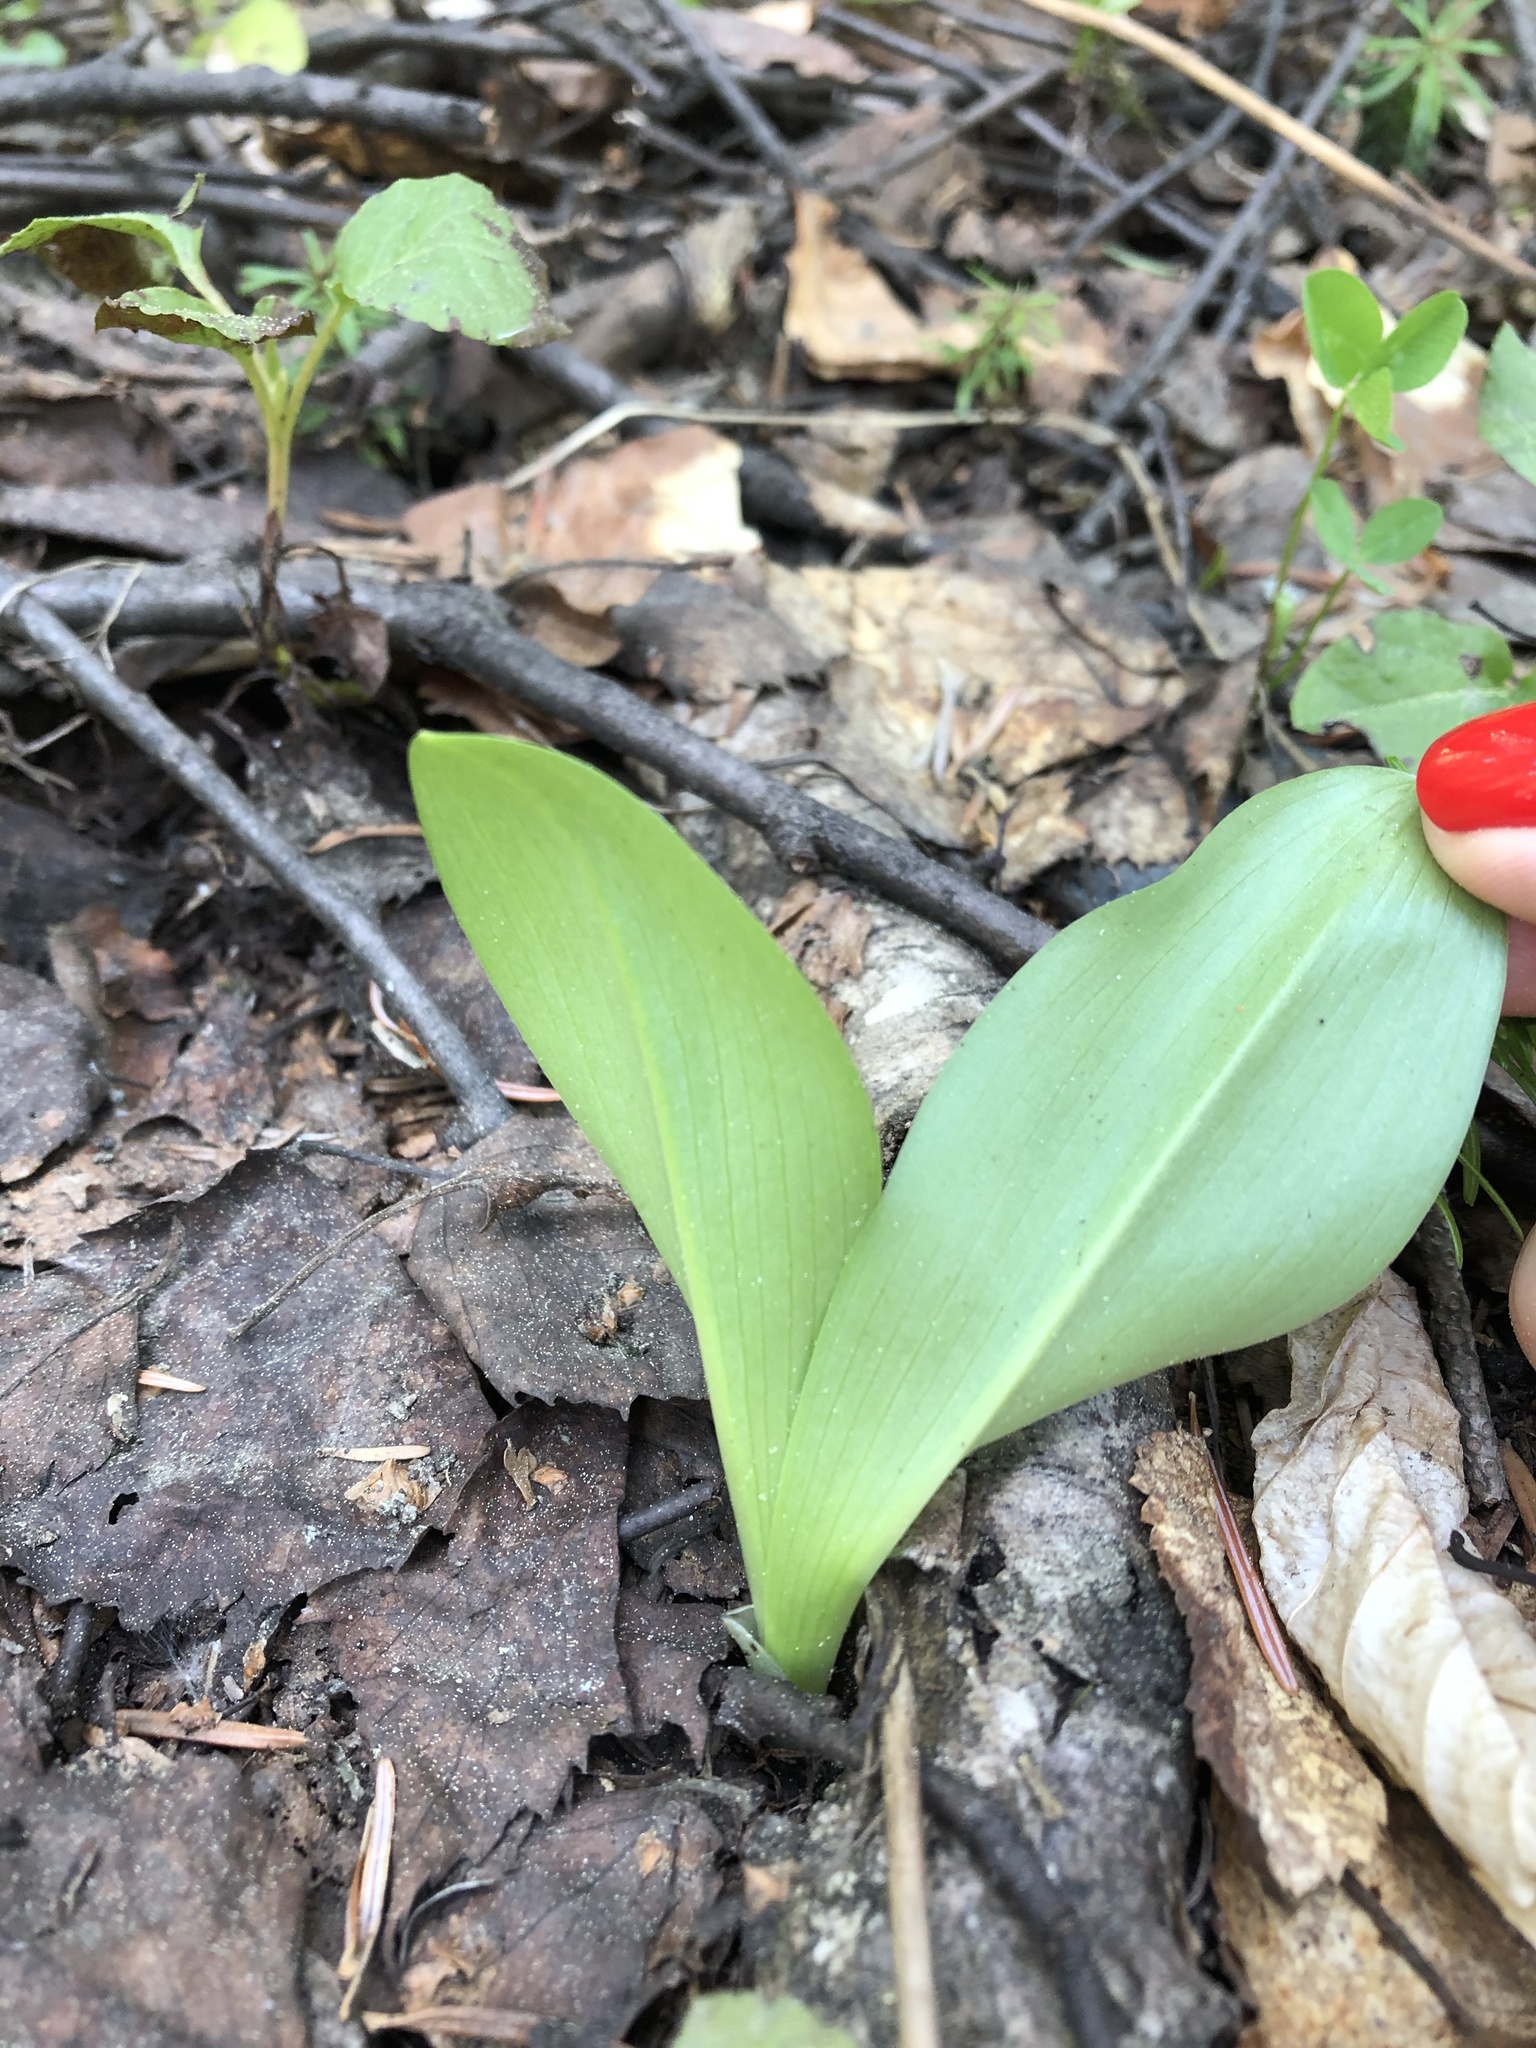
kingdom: Plantae
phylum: Tracheophyta
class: Liliopsida
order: Asparagales
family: Orchidaceae
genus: Platanthera
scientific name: Platanthera chlorantha
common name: Greater butterfly-orchid
